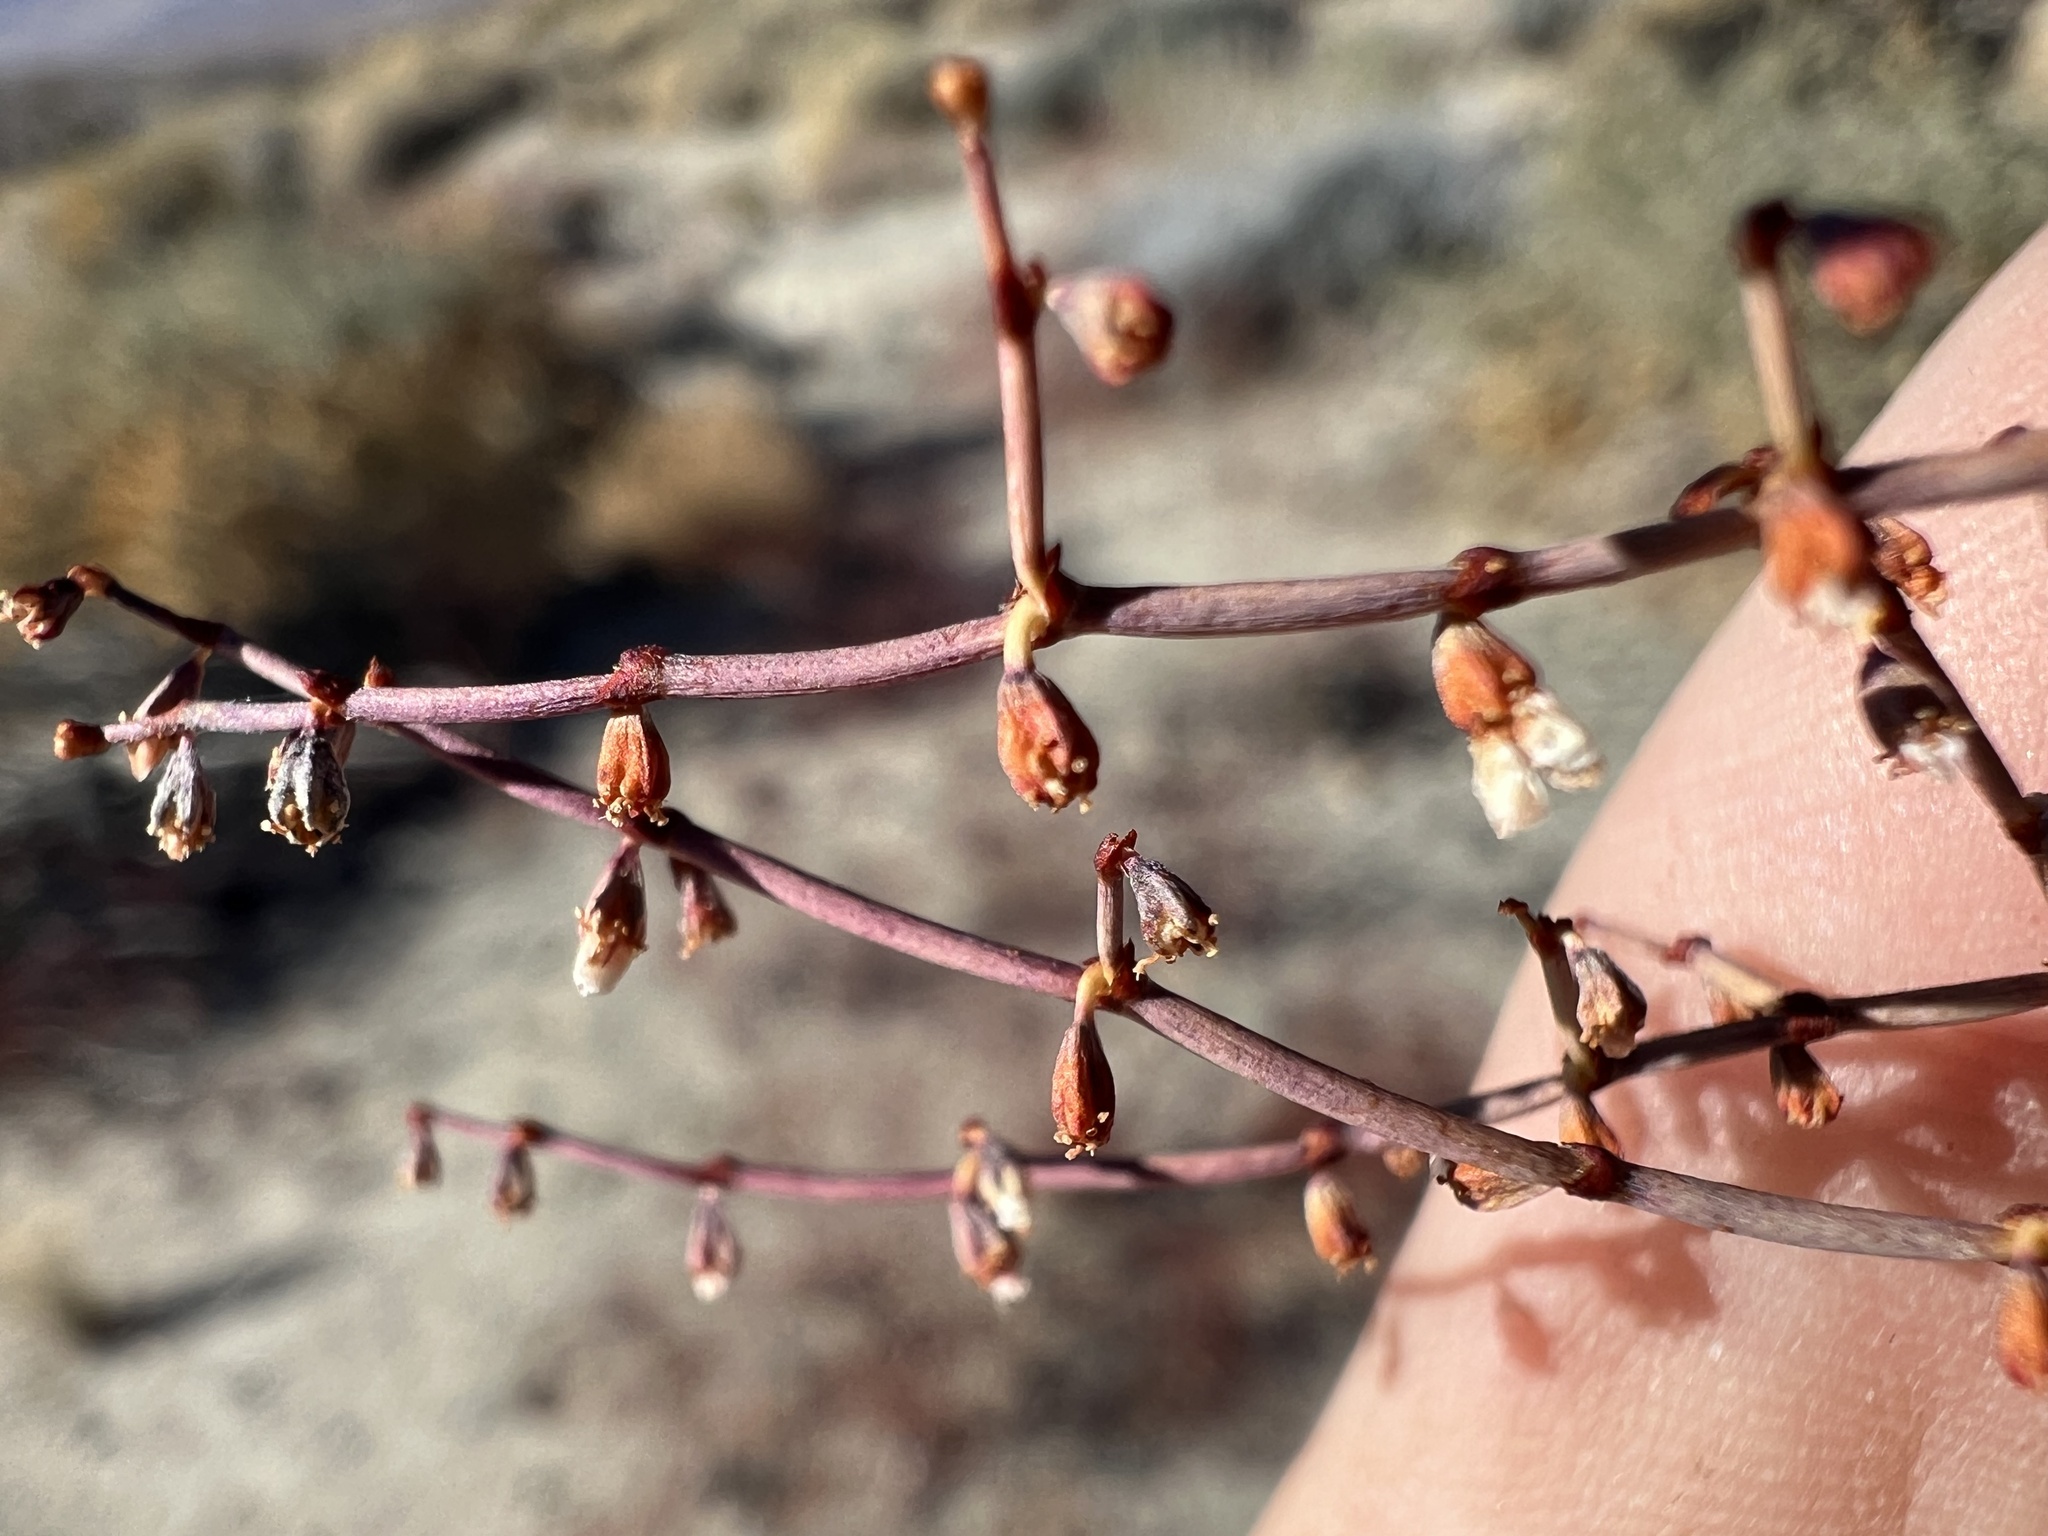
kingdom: Plantae
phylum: Tracheophyta
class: Magnoliopsida
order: Caryophyllales
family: Polygonaceae
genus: Eriogonum
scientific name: Eriogonum deflexum
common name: Skeleton-weed
